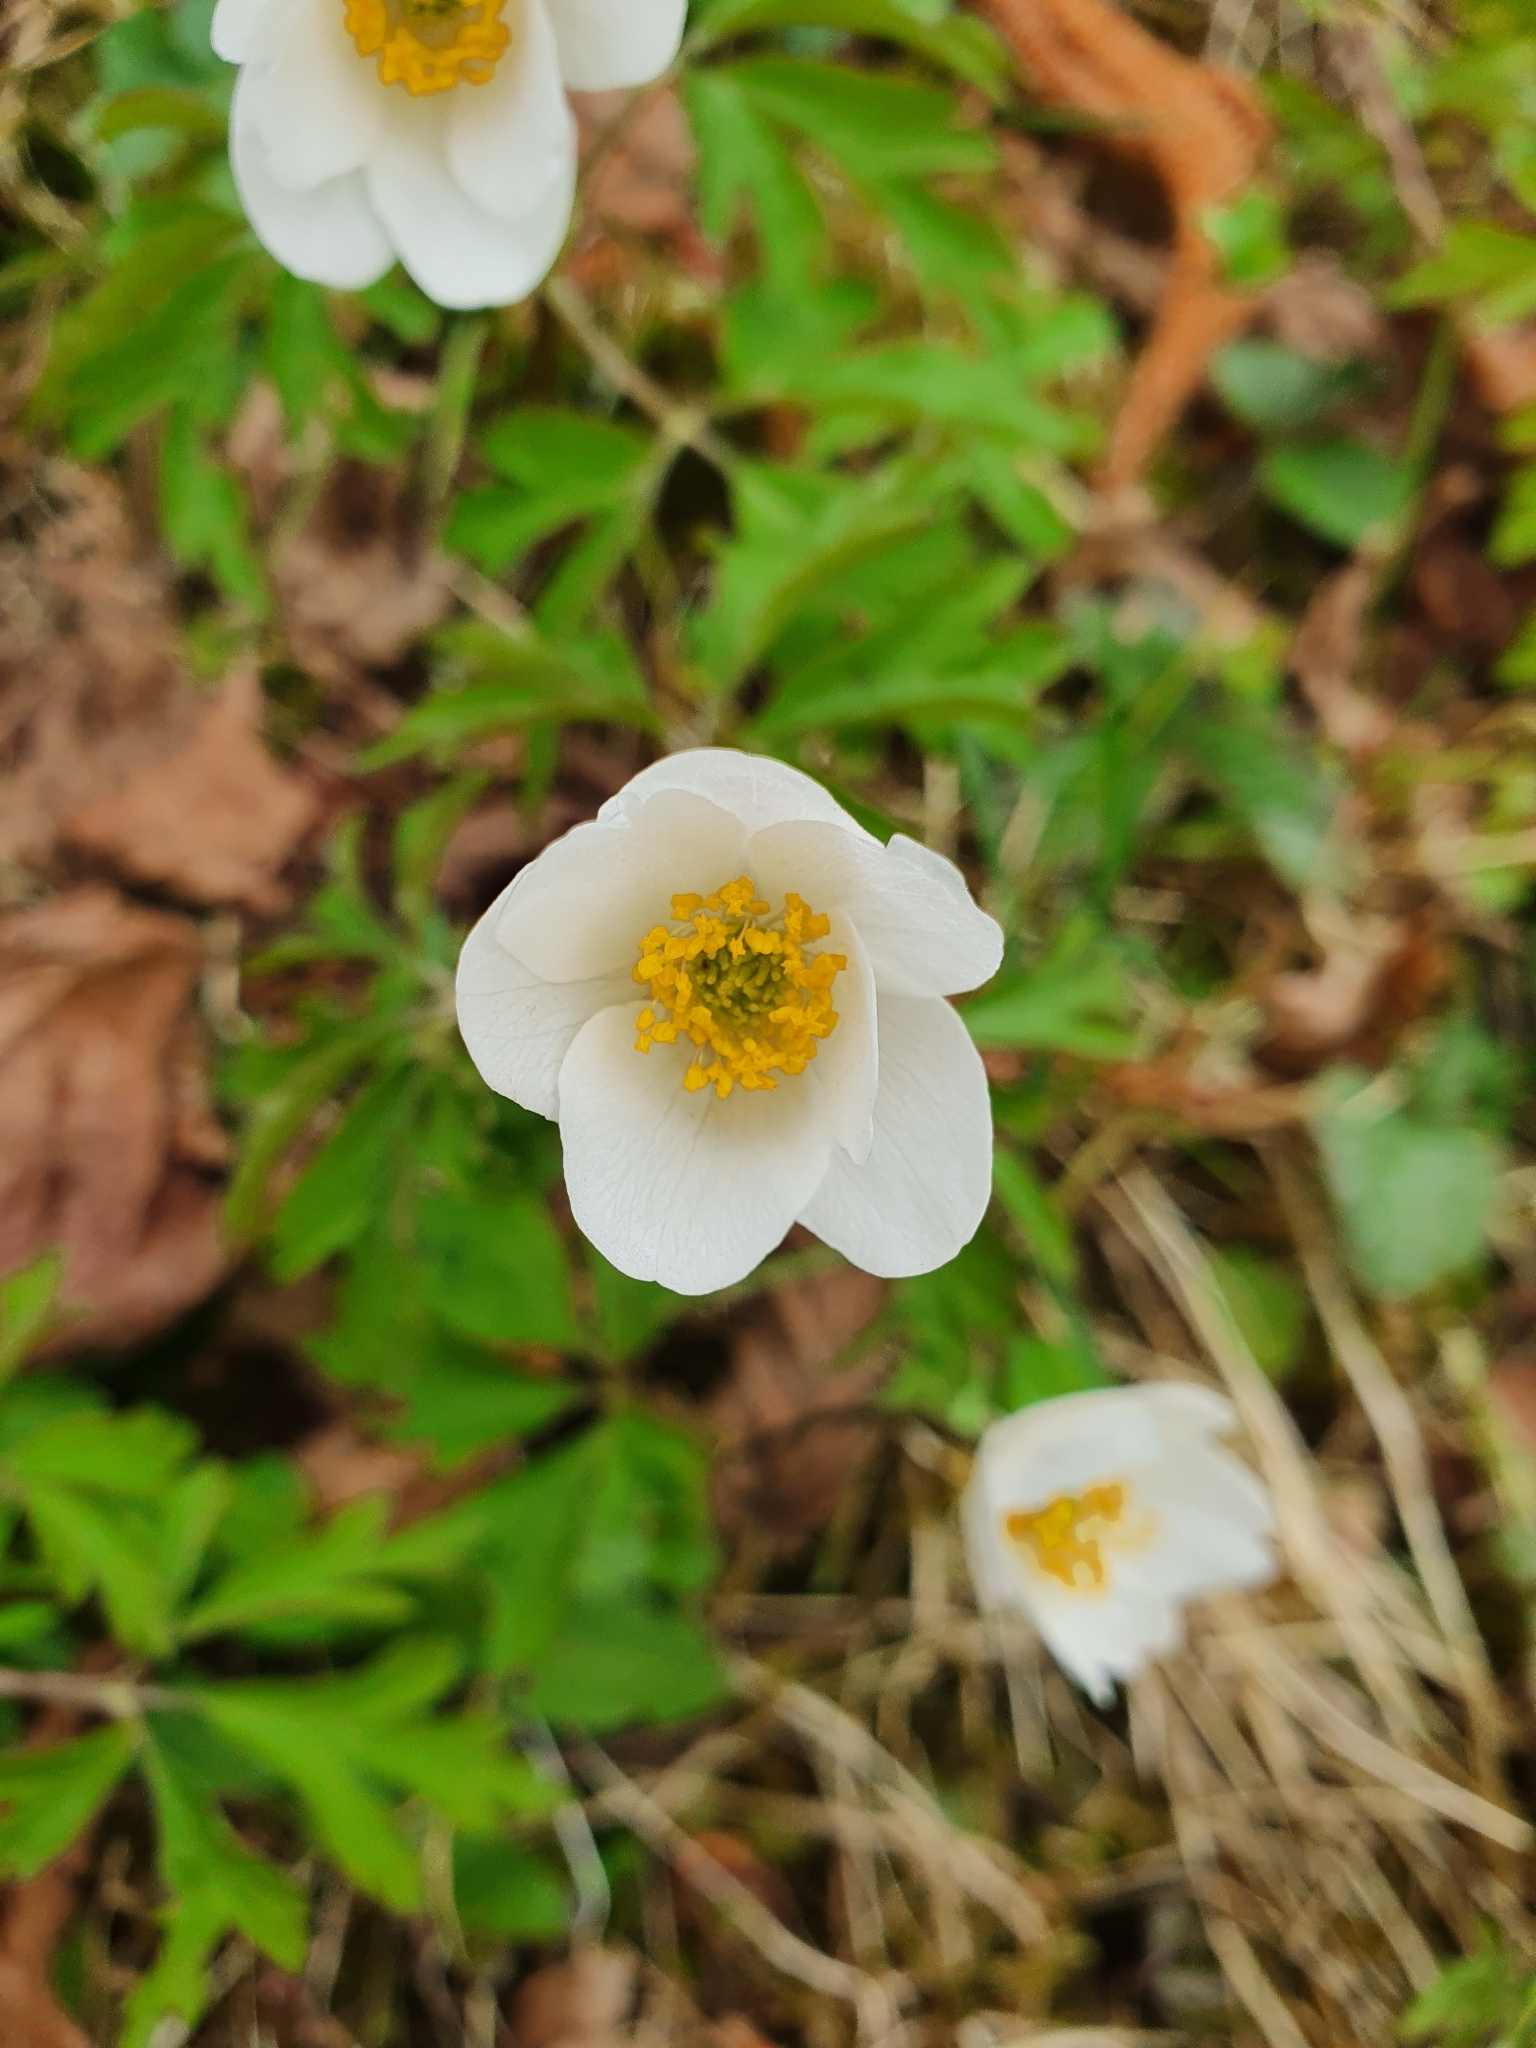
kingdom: Plantae
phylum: Tracheophyta
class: Magnoliopsida
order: Ranunculales
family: Ranunculaceae
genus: Anemone
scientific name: Anemone nemorosa
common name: Wood anemone
